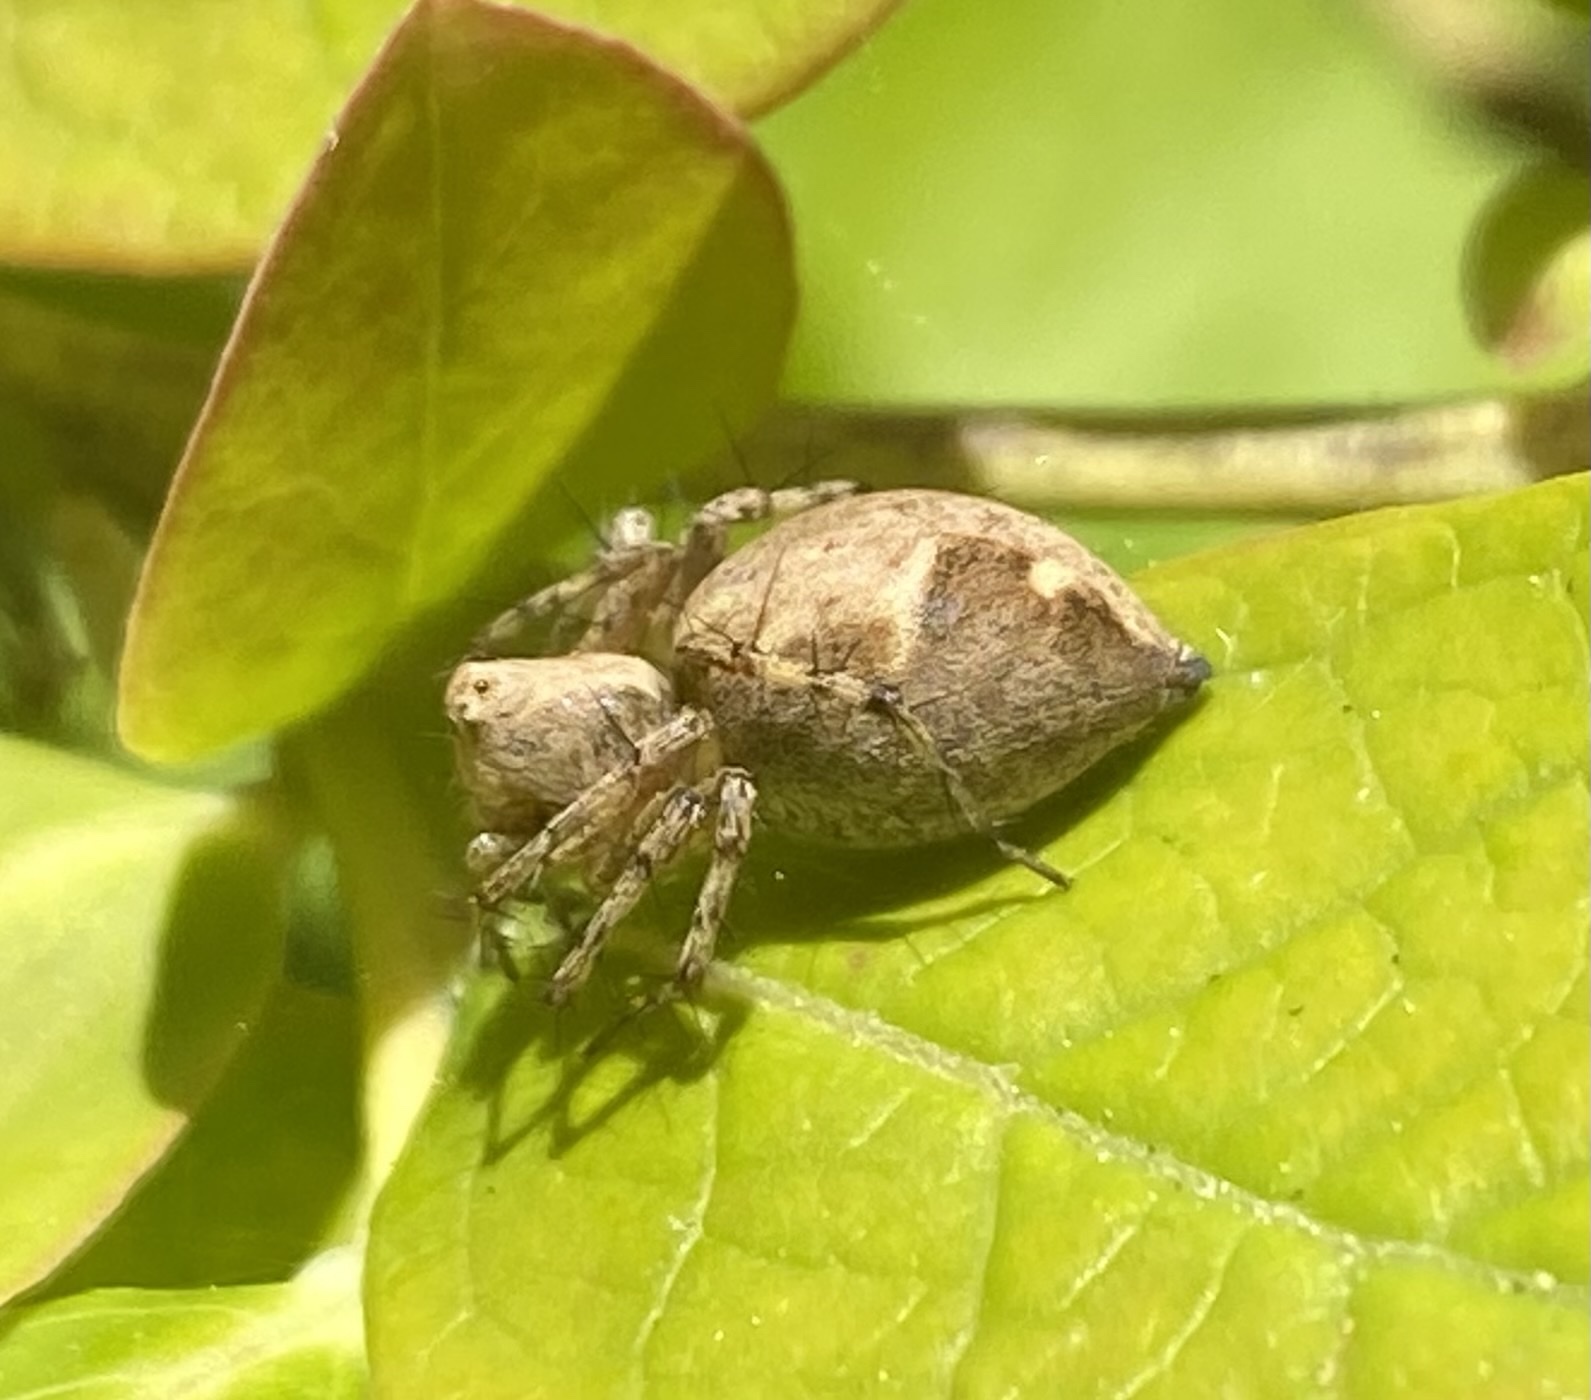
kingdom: Animalia
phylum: Arthropoda
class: Arachnida
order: Araneae
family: Oxyopidae
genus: Oxyopes
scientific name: Oxyopes scalaris
